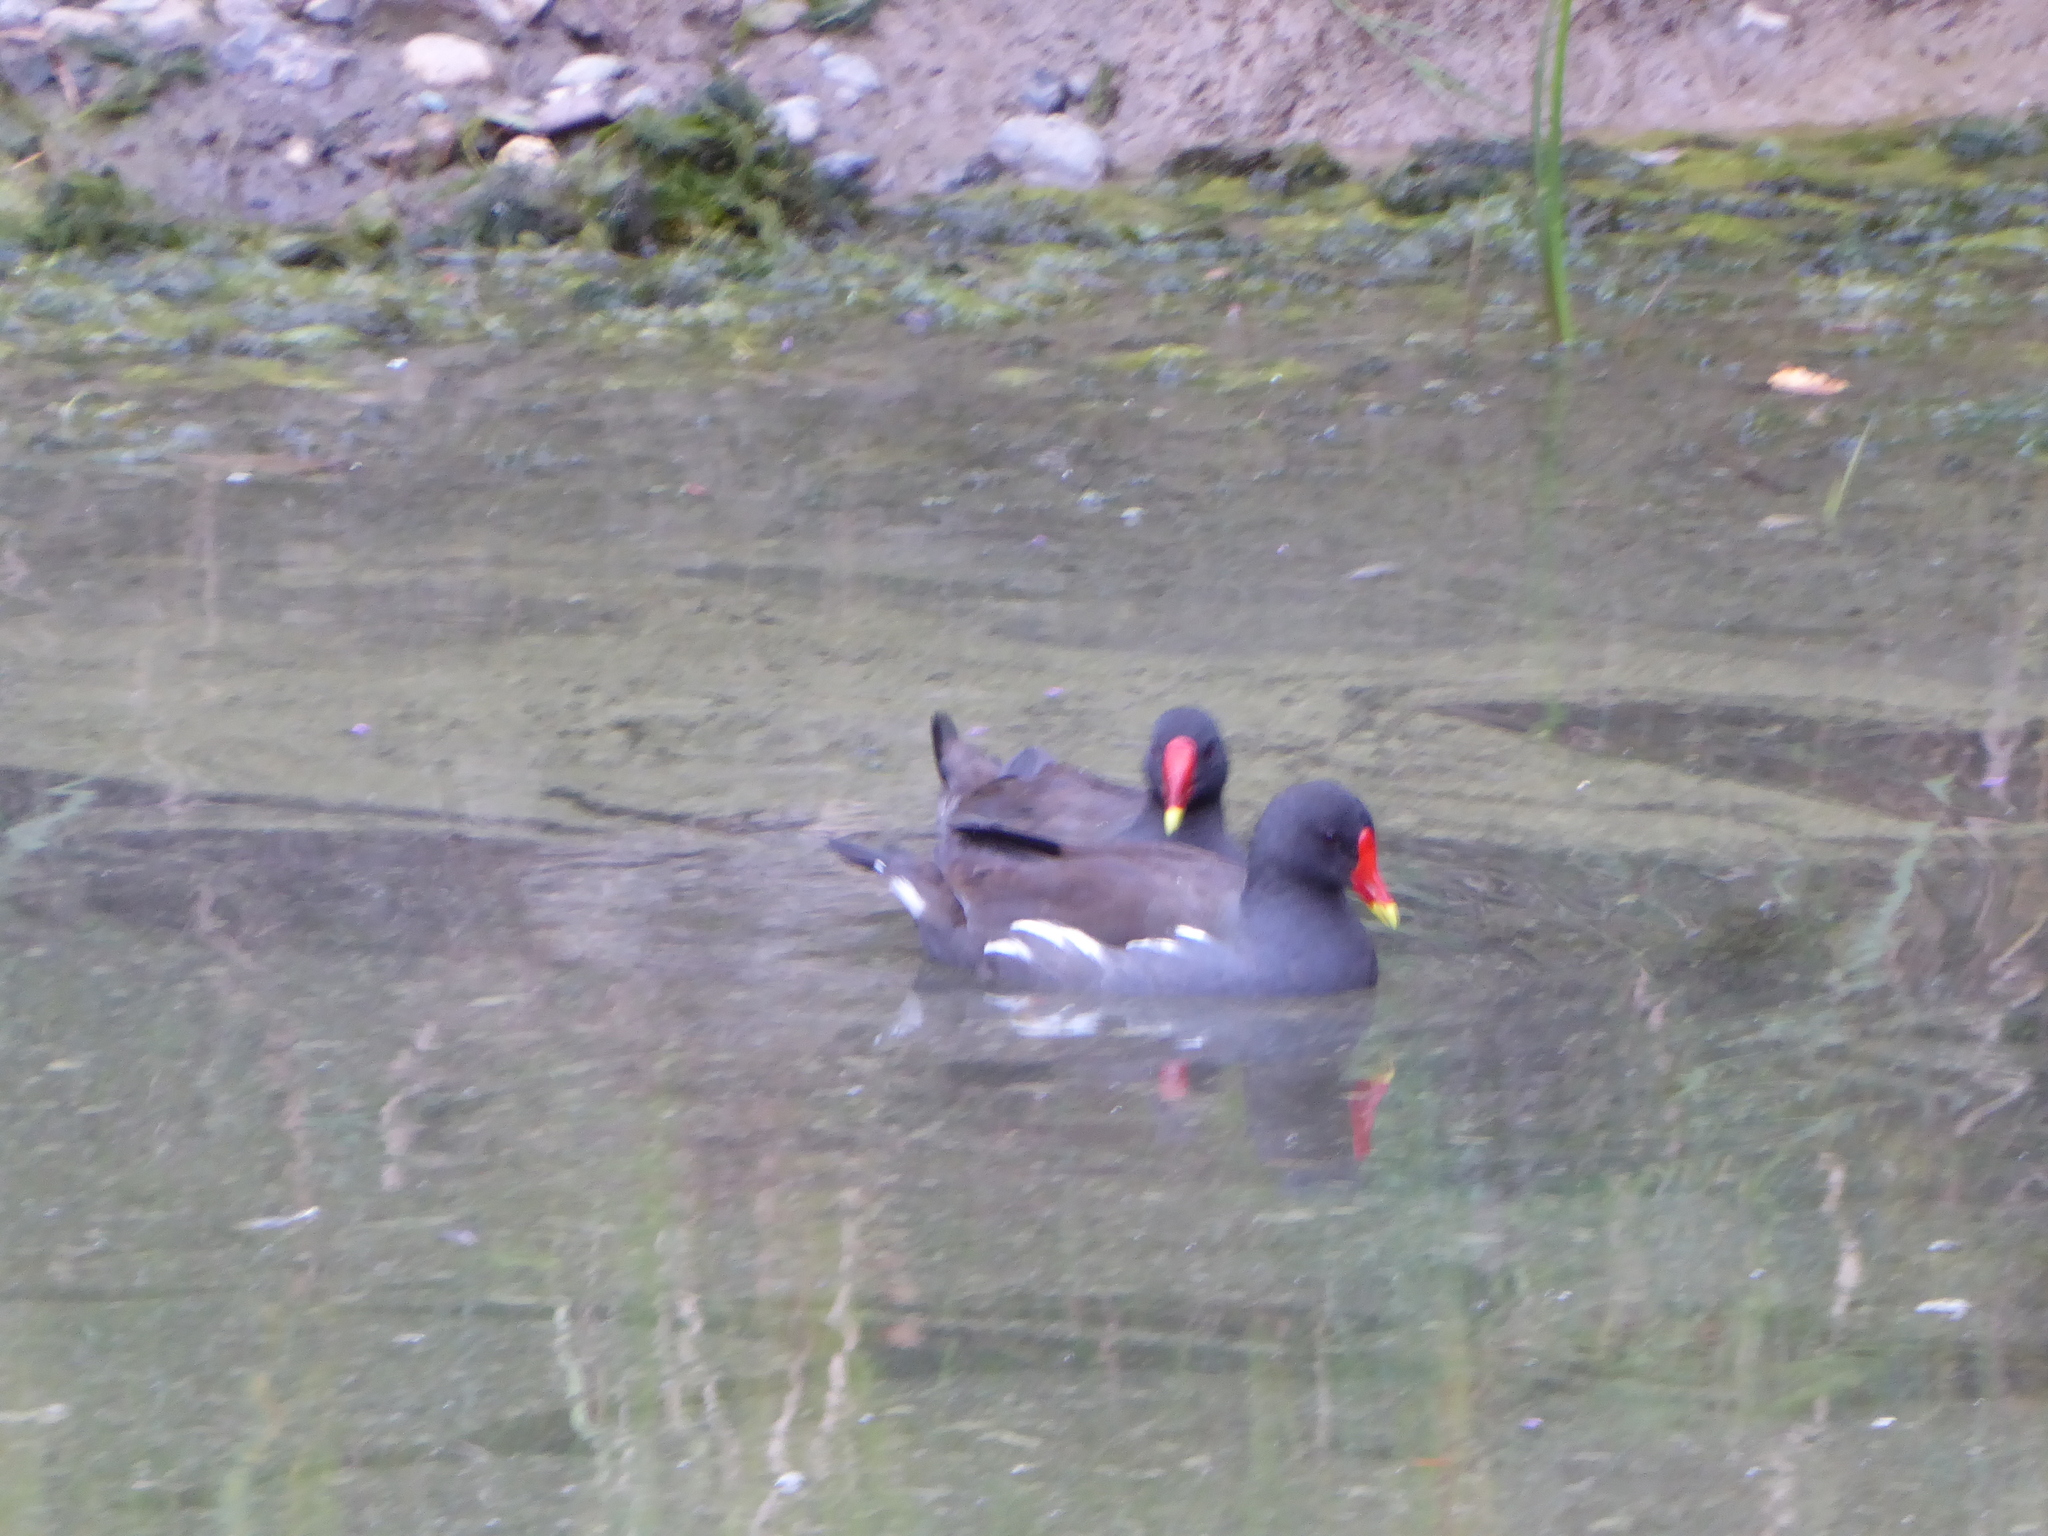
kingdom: Animalia
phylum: Chordata
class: Aves
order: Gruiformes
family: Rallidae
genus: Gallinula
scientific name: Gallinula chloropus
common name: Common moorhen
